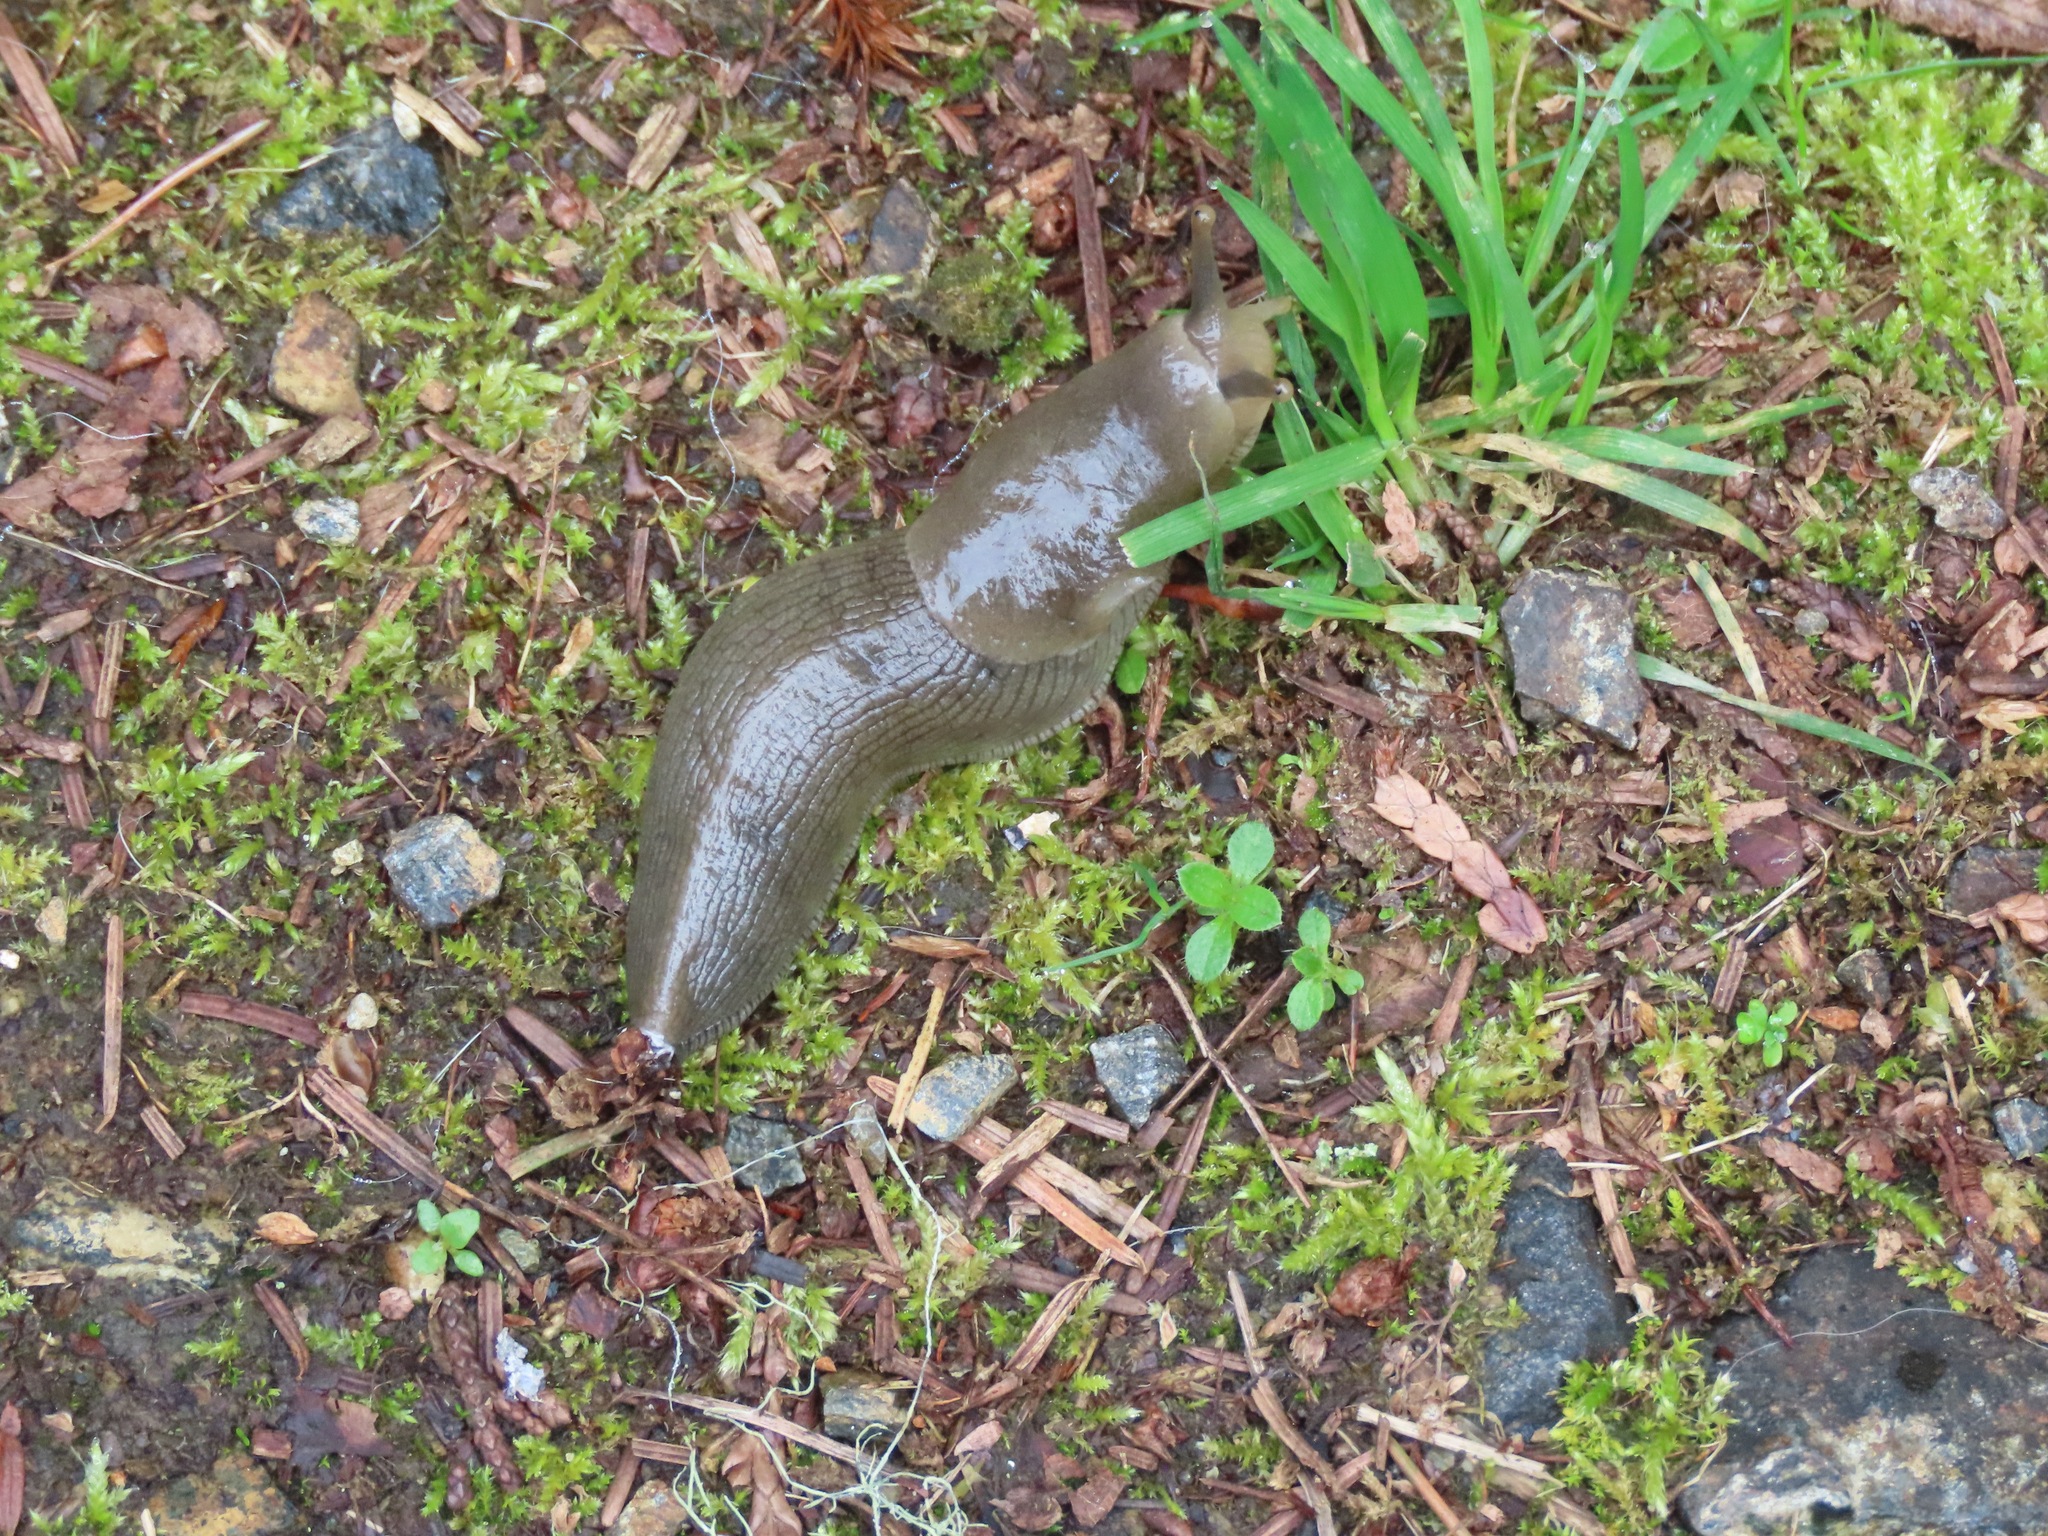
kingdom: Animalia
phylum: Mollusca
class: Gastropoda
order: Stylommatophora
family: Ariolimacidae
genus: Ariolimax
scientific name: Ariolimax columbianus
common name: Pacific banana slug
